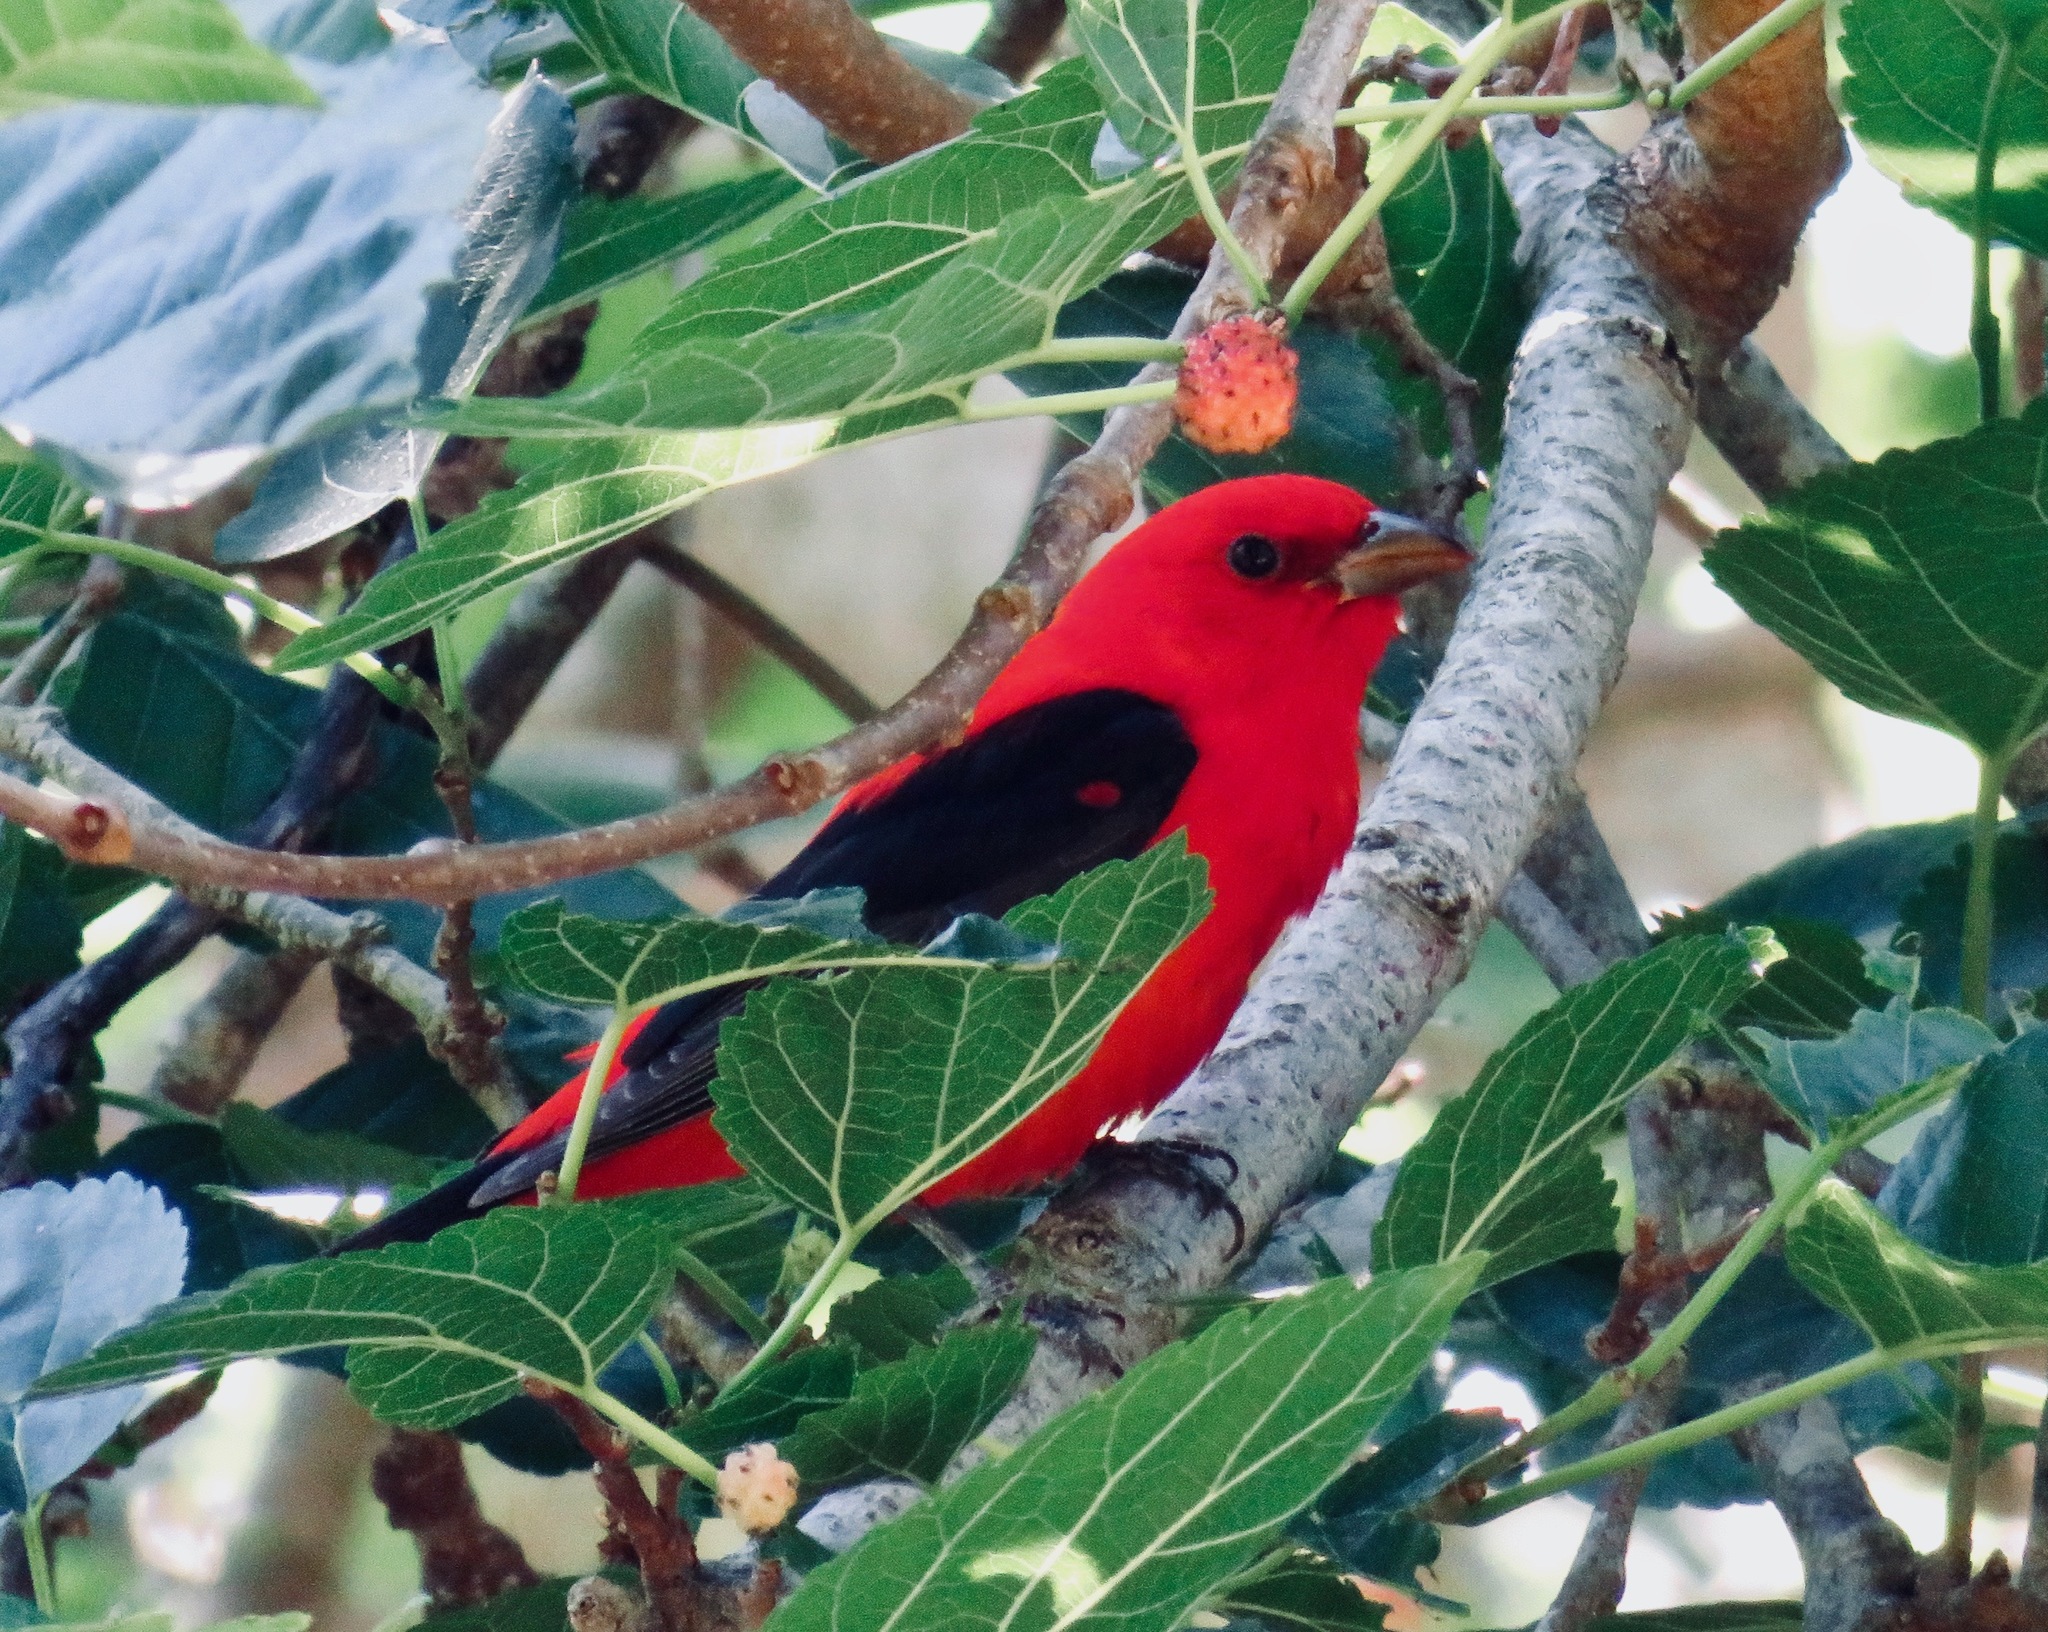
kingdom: Animalia
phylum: Chordata
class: Aves
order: Passeriformes
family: Cardinalidae
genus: Piranga
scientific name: Piranga olivacea
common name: Scarlet tanager
